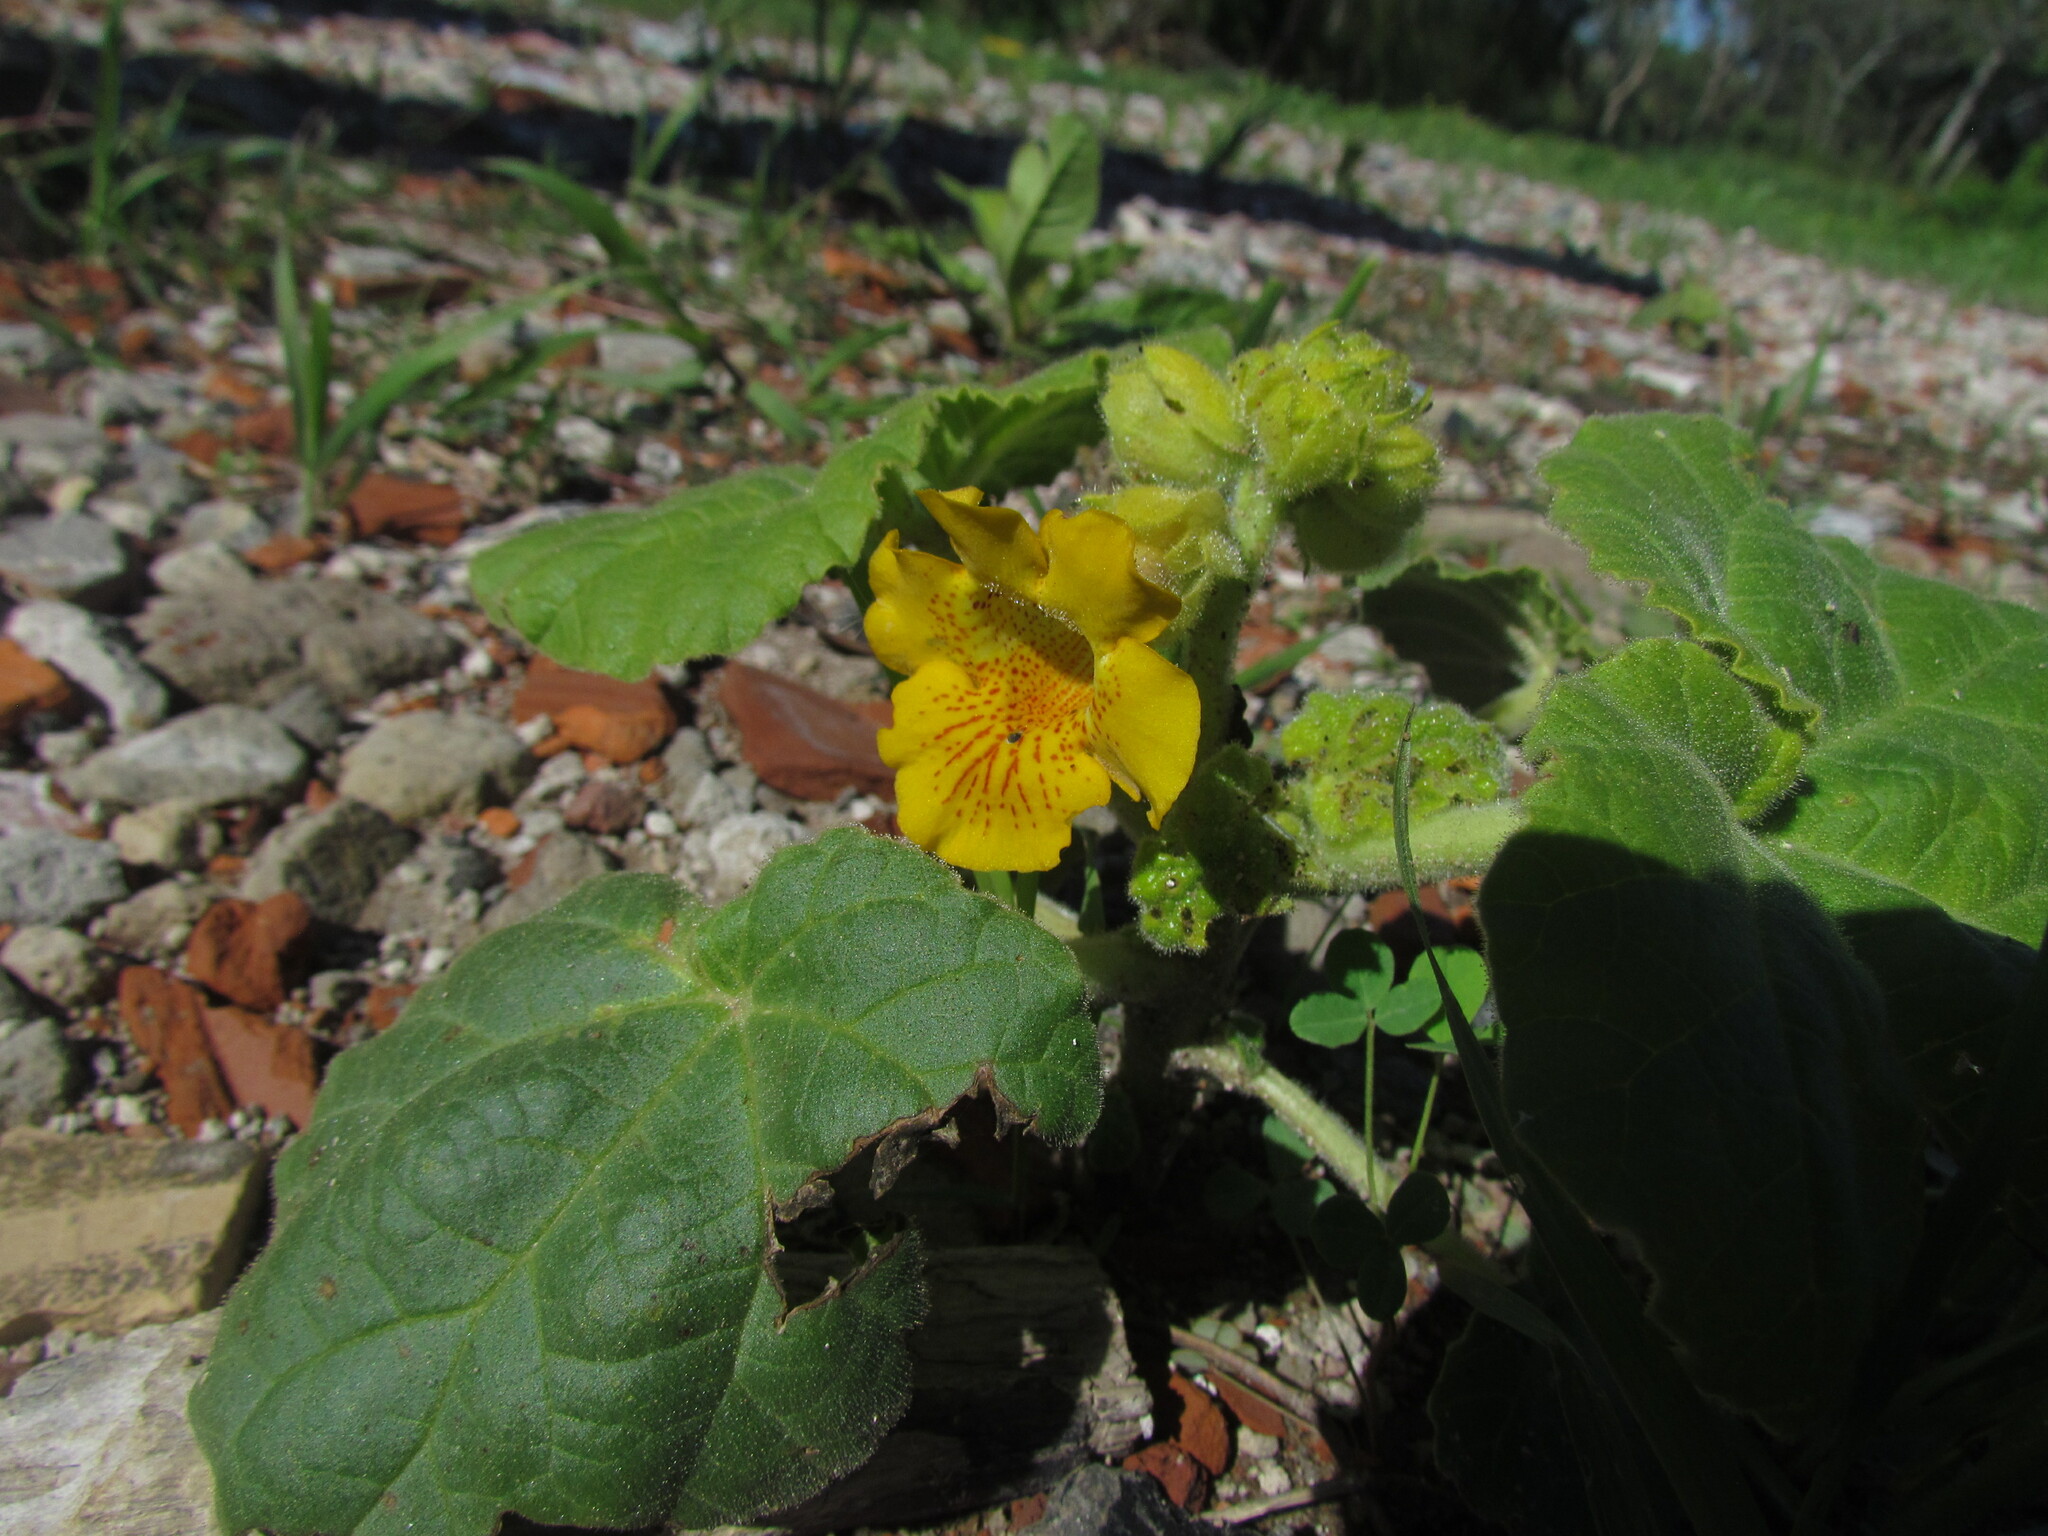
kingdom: Plantae
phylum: Tracheophyta
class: Magnoliopsida
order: Lamiales
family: Martyniaceae
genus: Ibicella
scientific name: Ibicella lutea
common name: Yellow unicorn-plant
